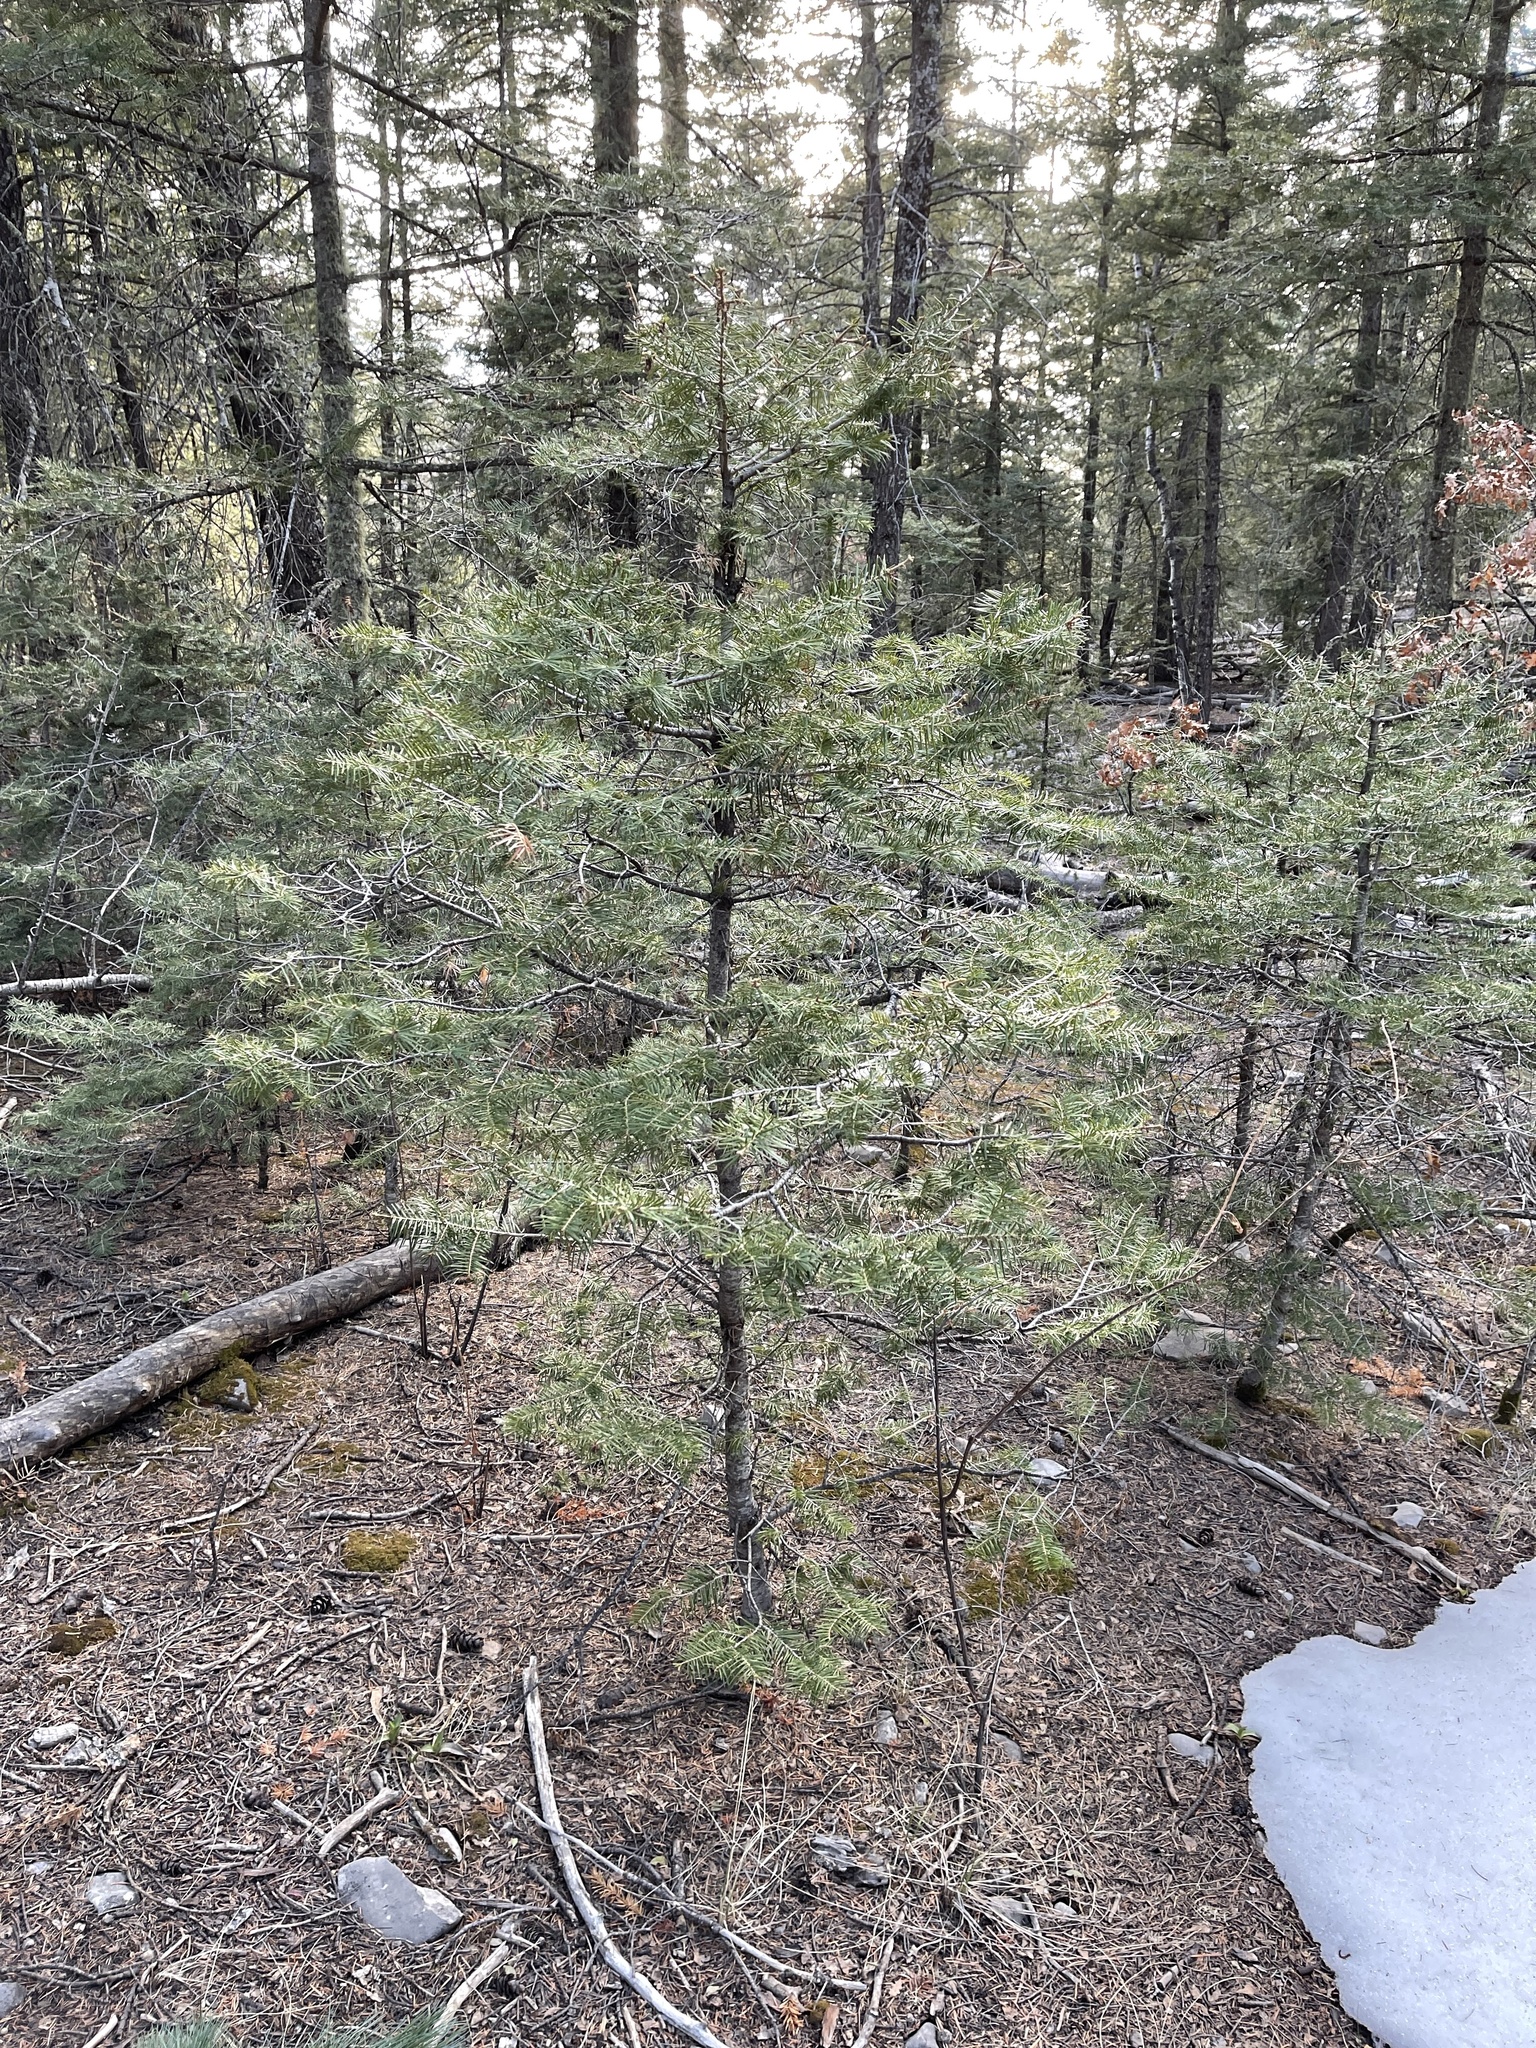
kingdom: Plantae
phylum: Tracheophyta
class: Pinopsida
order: Pinales
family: Pinaceae
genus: Abies
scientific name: Abies concolor
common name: Colorado fir
